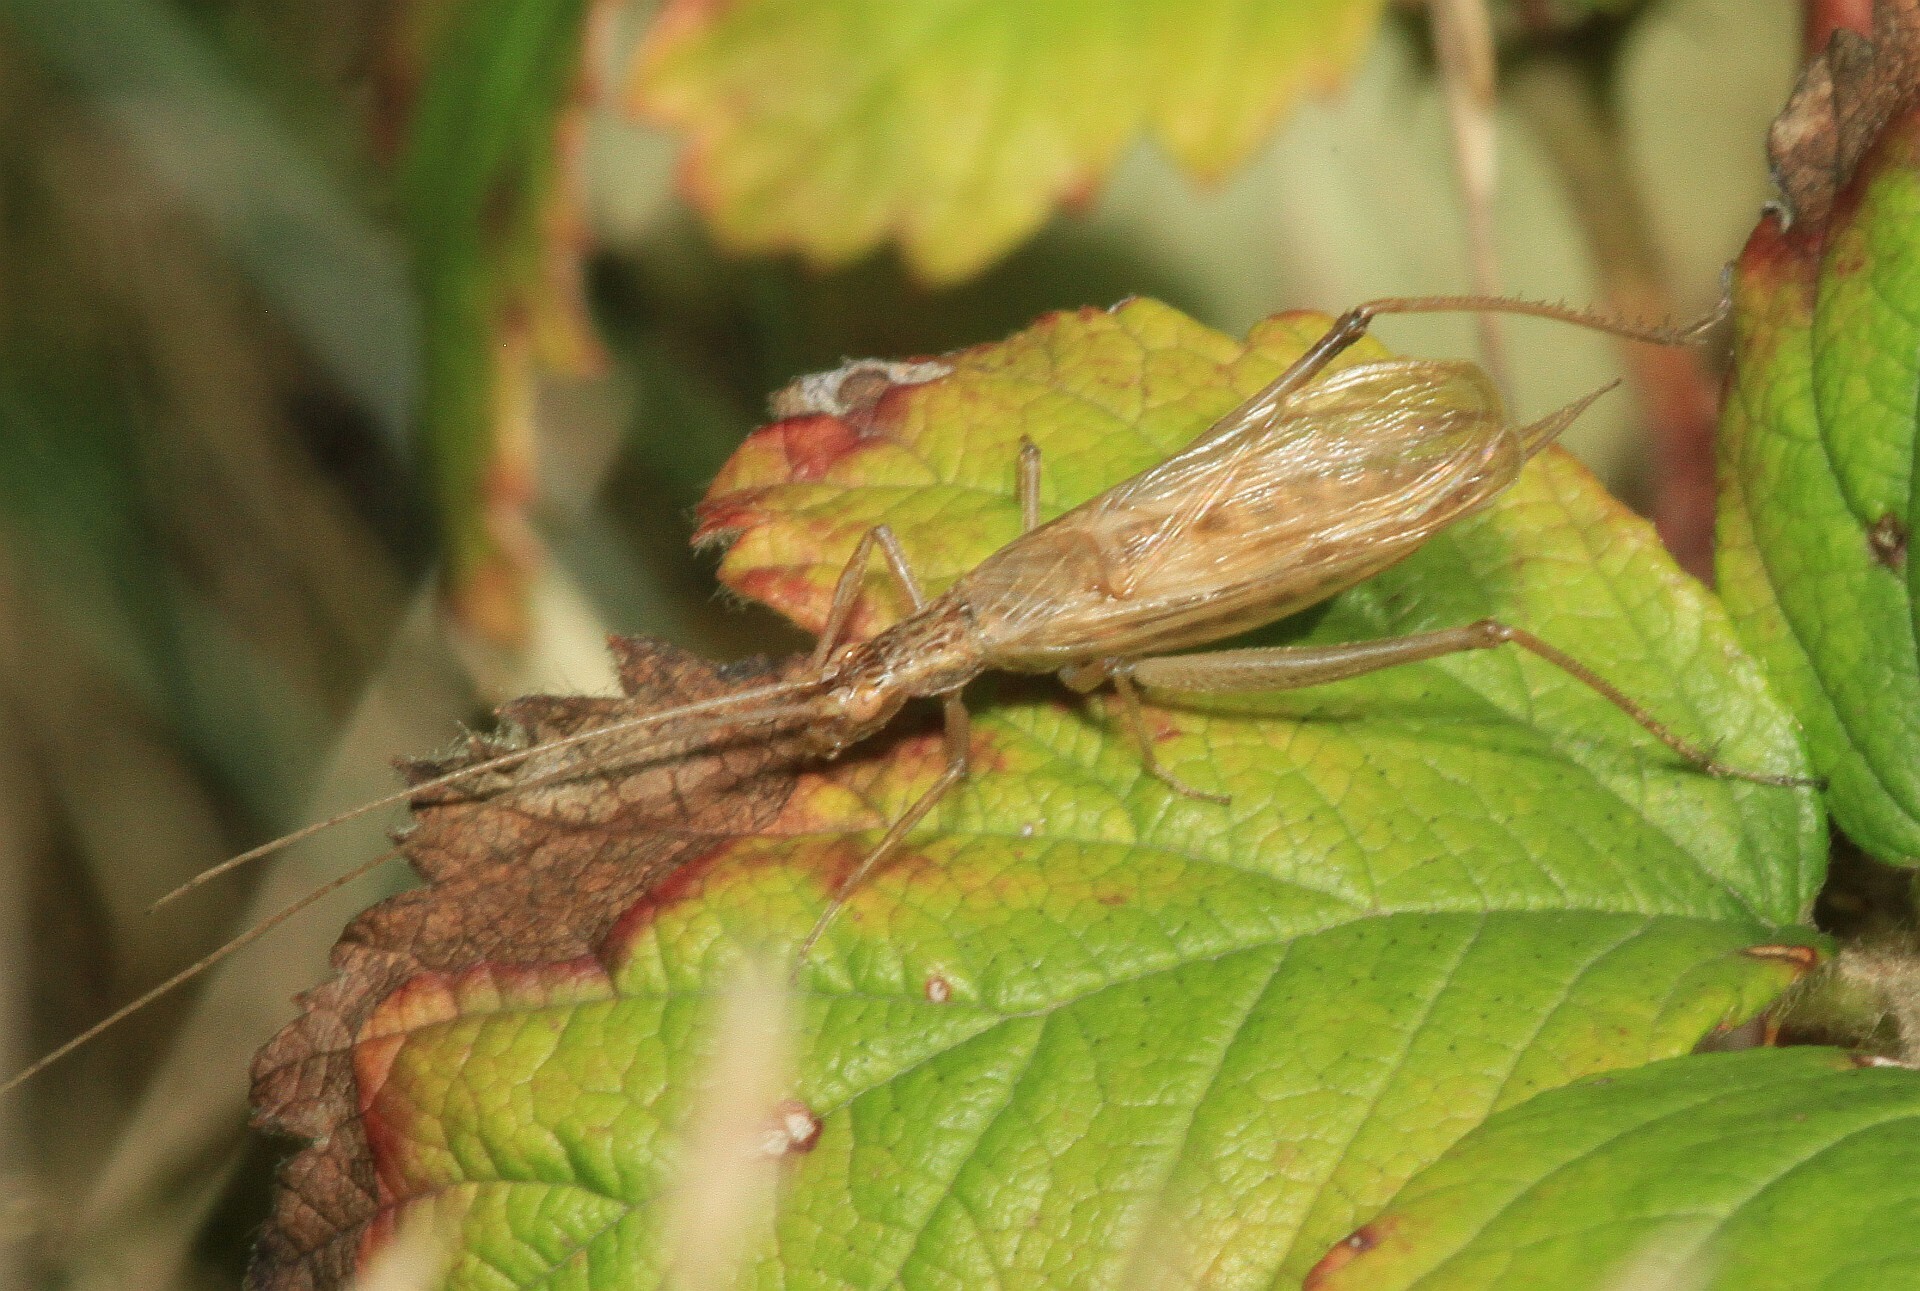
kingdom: Animalia
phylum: Arthropoda
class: Insecta
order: Orthoptera
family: Gryllidae
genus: Oecanthus
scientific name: Oecanthus pellucens
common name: Tree-cricket
